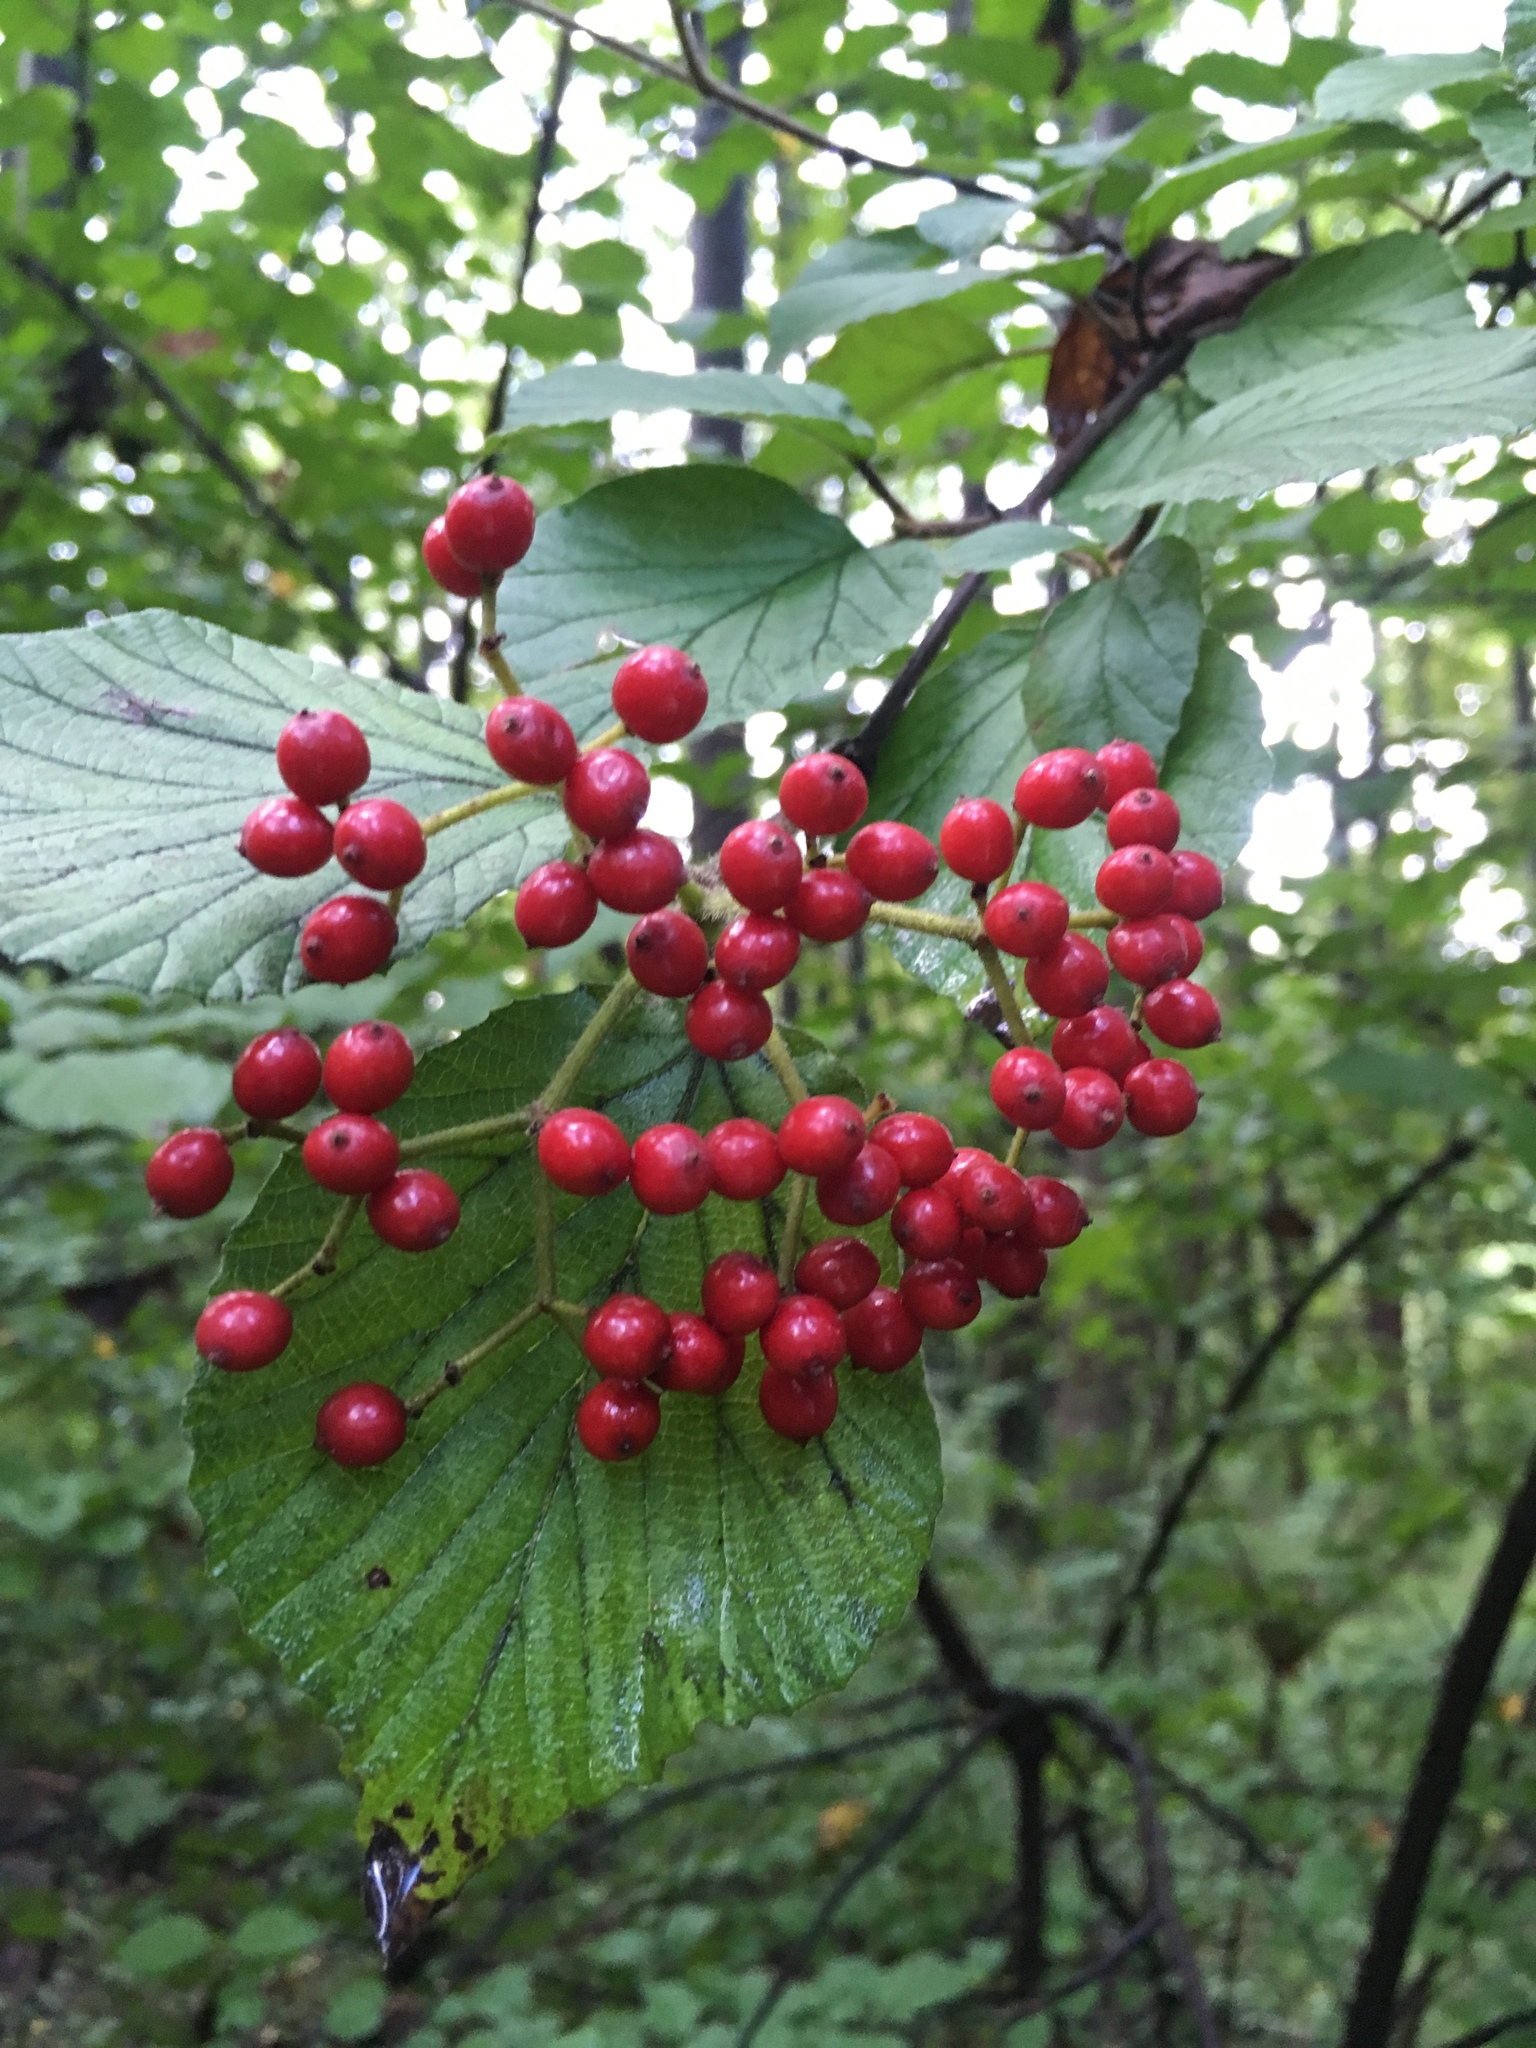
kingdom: Plantae
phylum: Tracheophyta
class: Magnoliopsida
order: Dipsacales
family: Viburnaceae
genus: Viburnum
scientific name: Viburnum dilatatum
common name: Linden arrowwood
